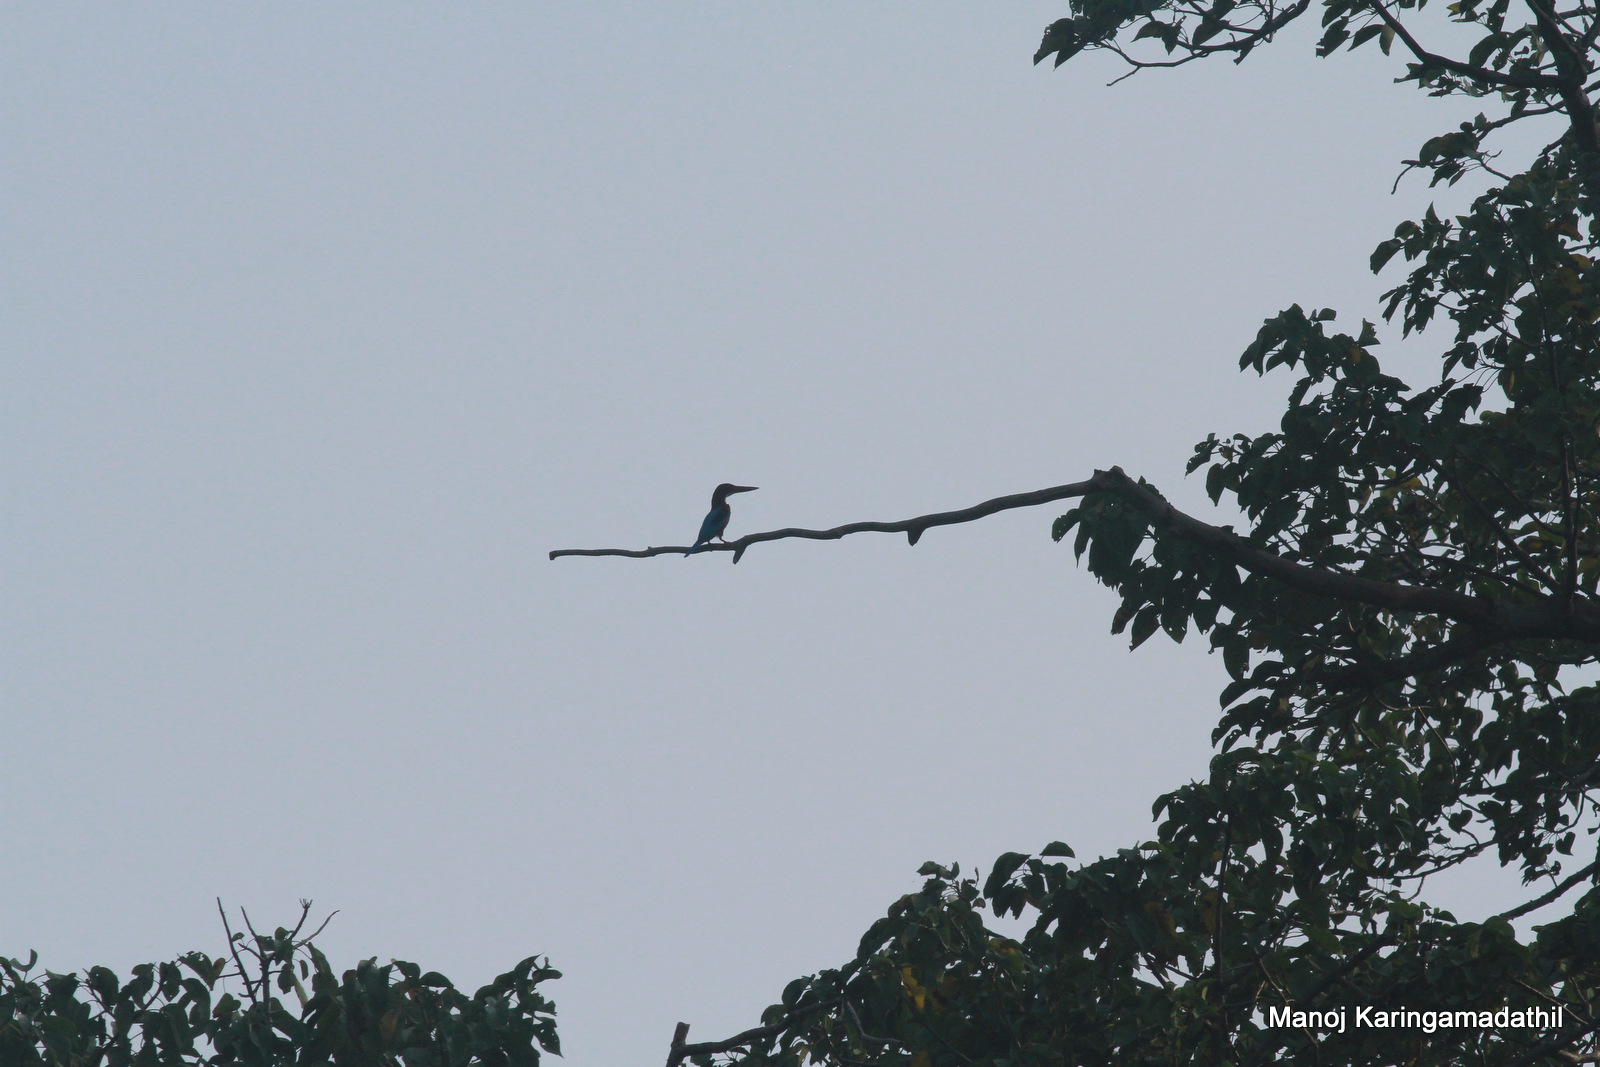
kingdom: Animalia
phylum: Chordata
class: Aves
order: Coraciiformes
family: Alcedinidae
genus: Halcyon
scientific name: Halcyon smyrnensis
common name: White-throated kingfisher
